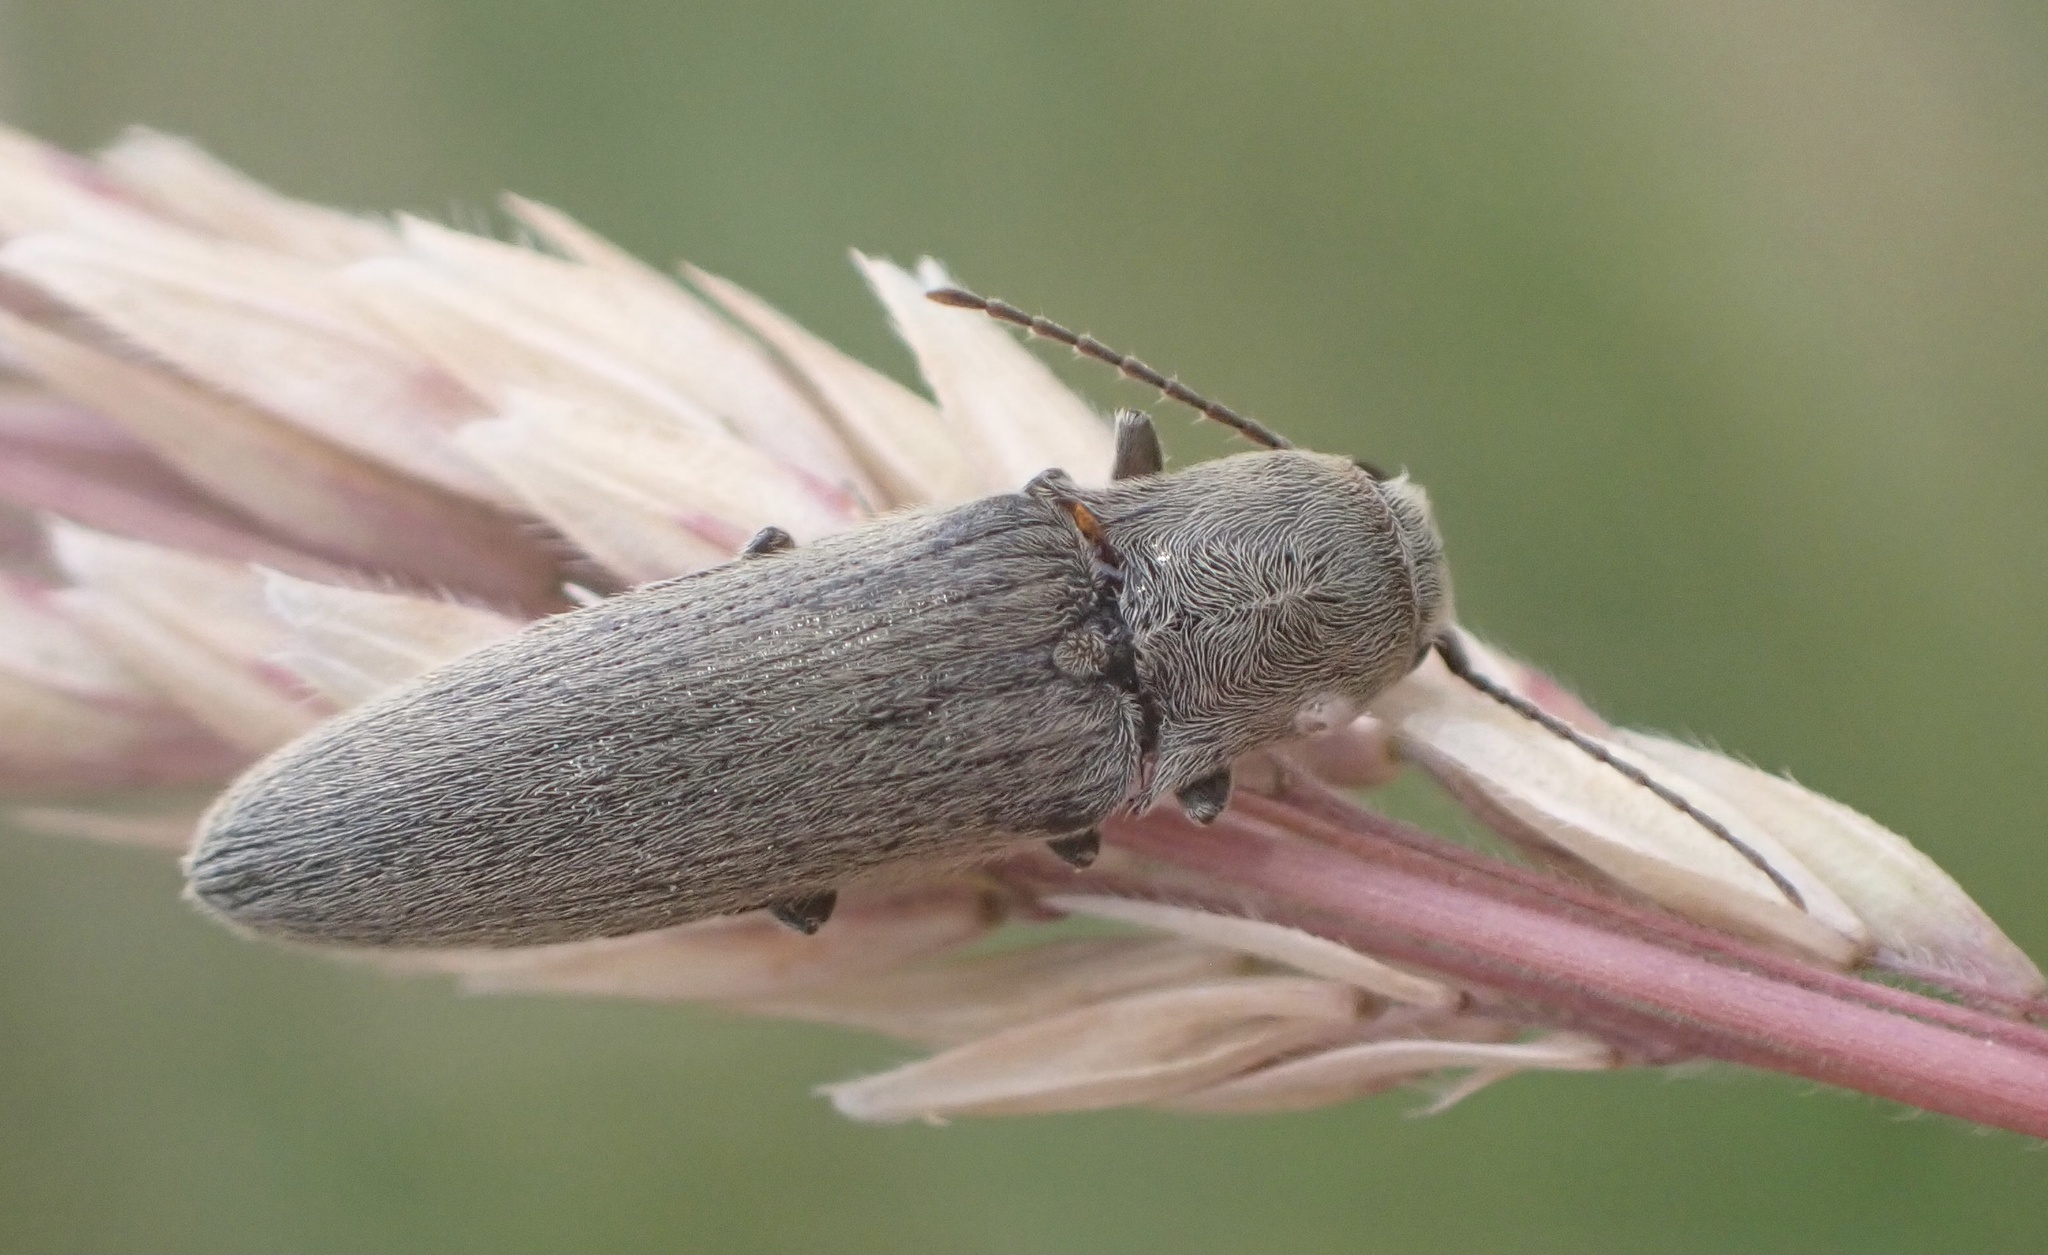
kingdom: Animalia
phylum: Arthropoda
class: Insecta
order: Coleoptera
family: Elateridae
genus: Synaptus
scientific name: Synaptus filiformis
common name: Hairy click beetle
